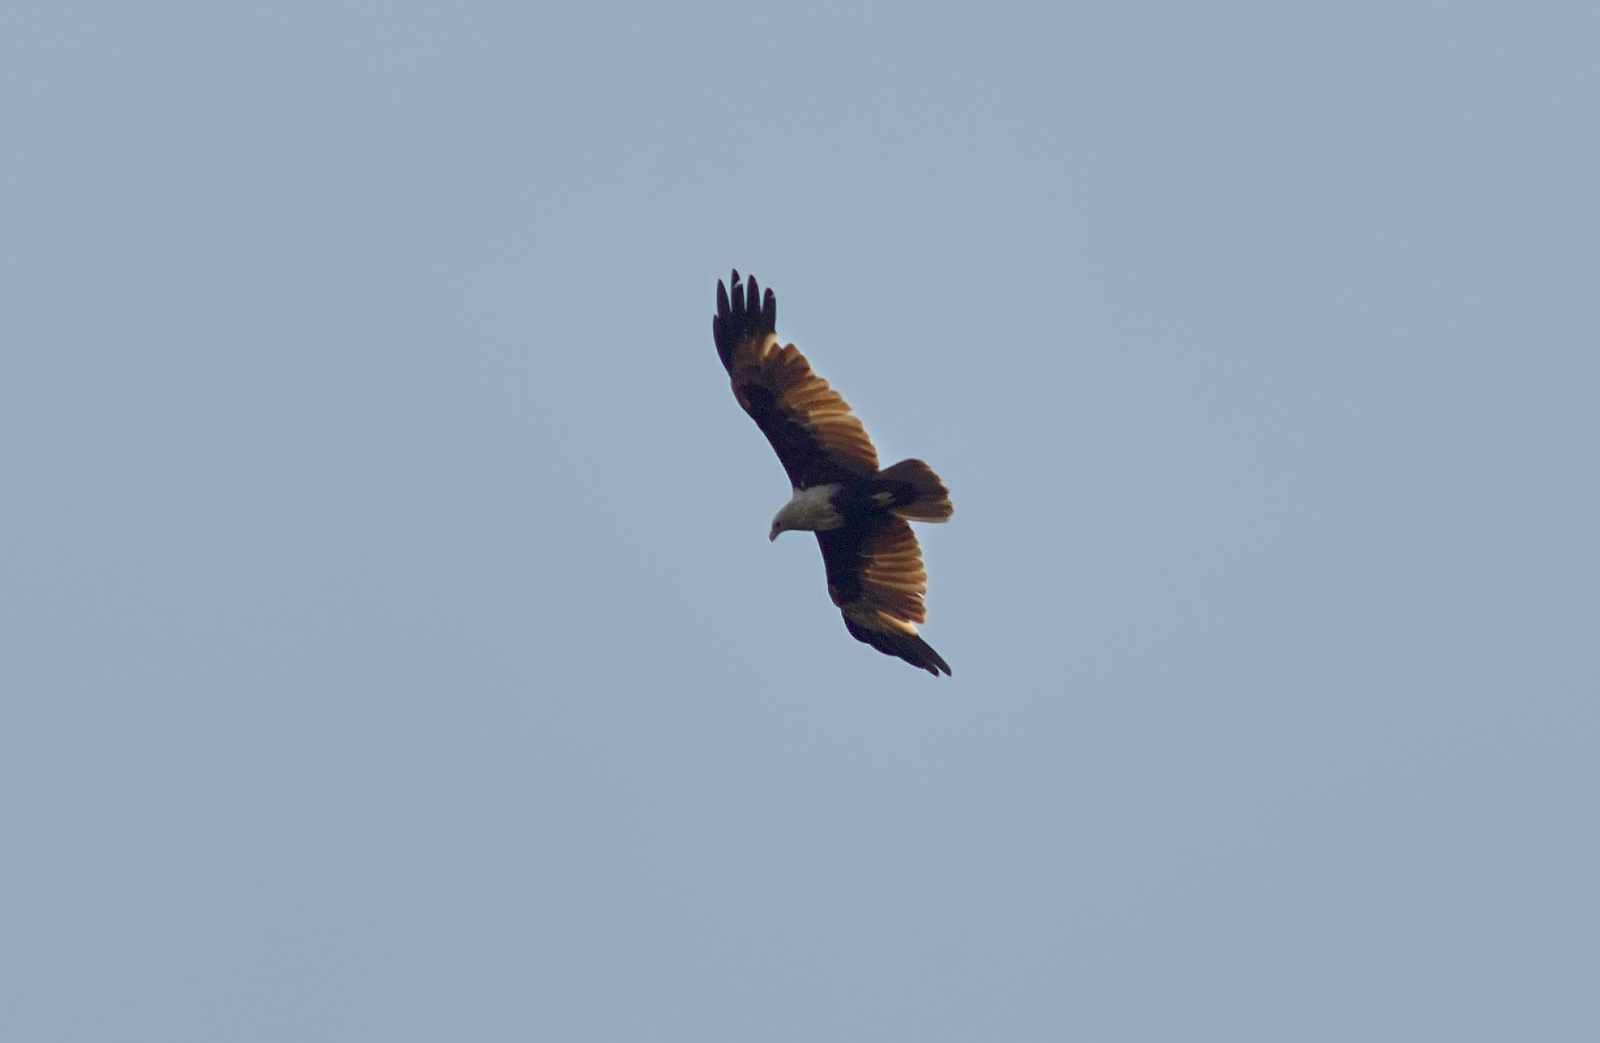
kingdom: Animalia
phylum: Chordata
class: Aves
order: Accipitriformes
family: Accipitridae
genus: Haliastur
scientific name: Haliastur indus
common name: Brahminy kite
